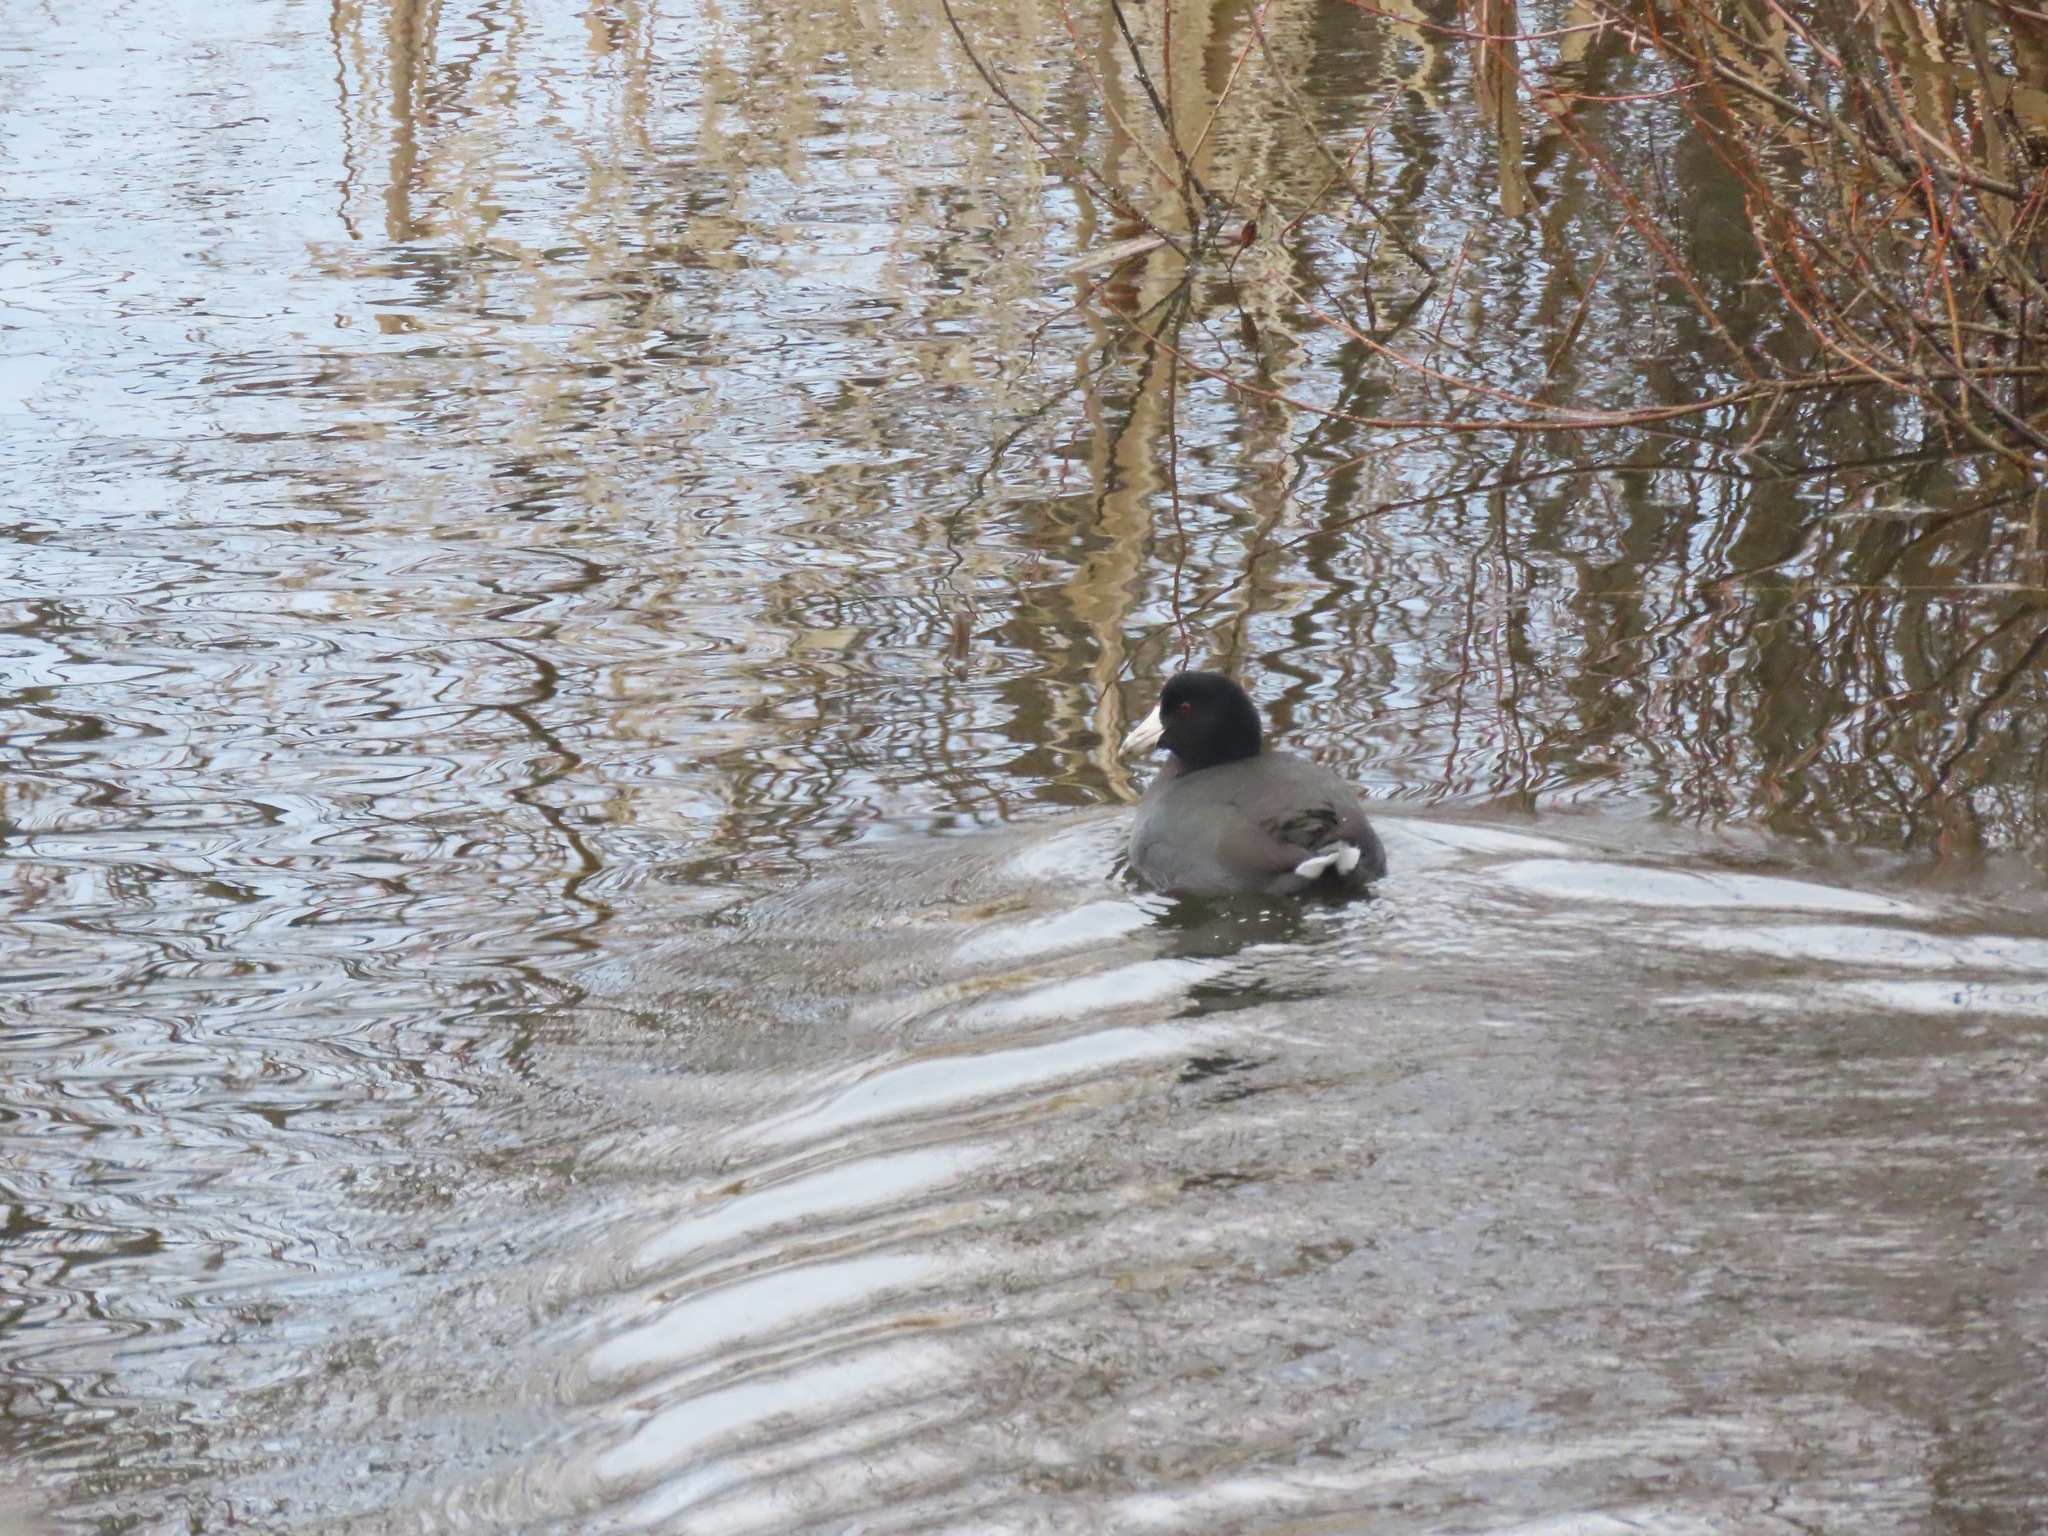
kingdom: Animalia
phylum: Chordata
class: Aves
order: Gruiformes
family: Rallidae
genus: Fulica
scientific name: Fulica americana
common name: American coot
